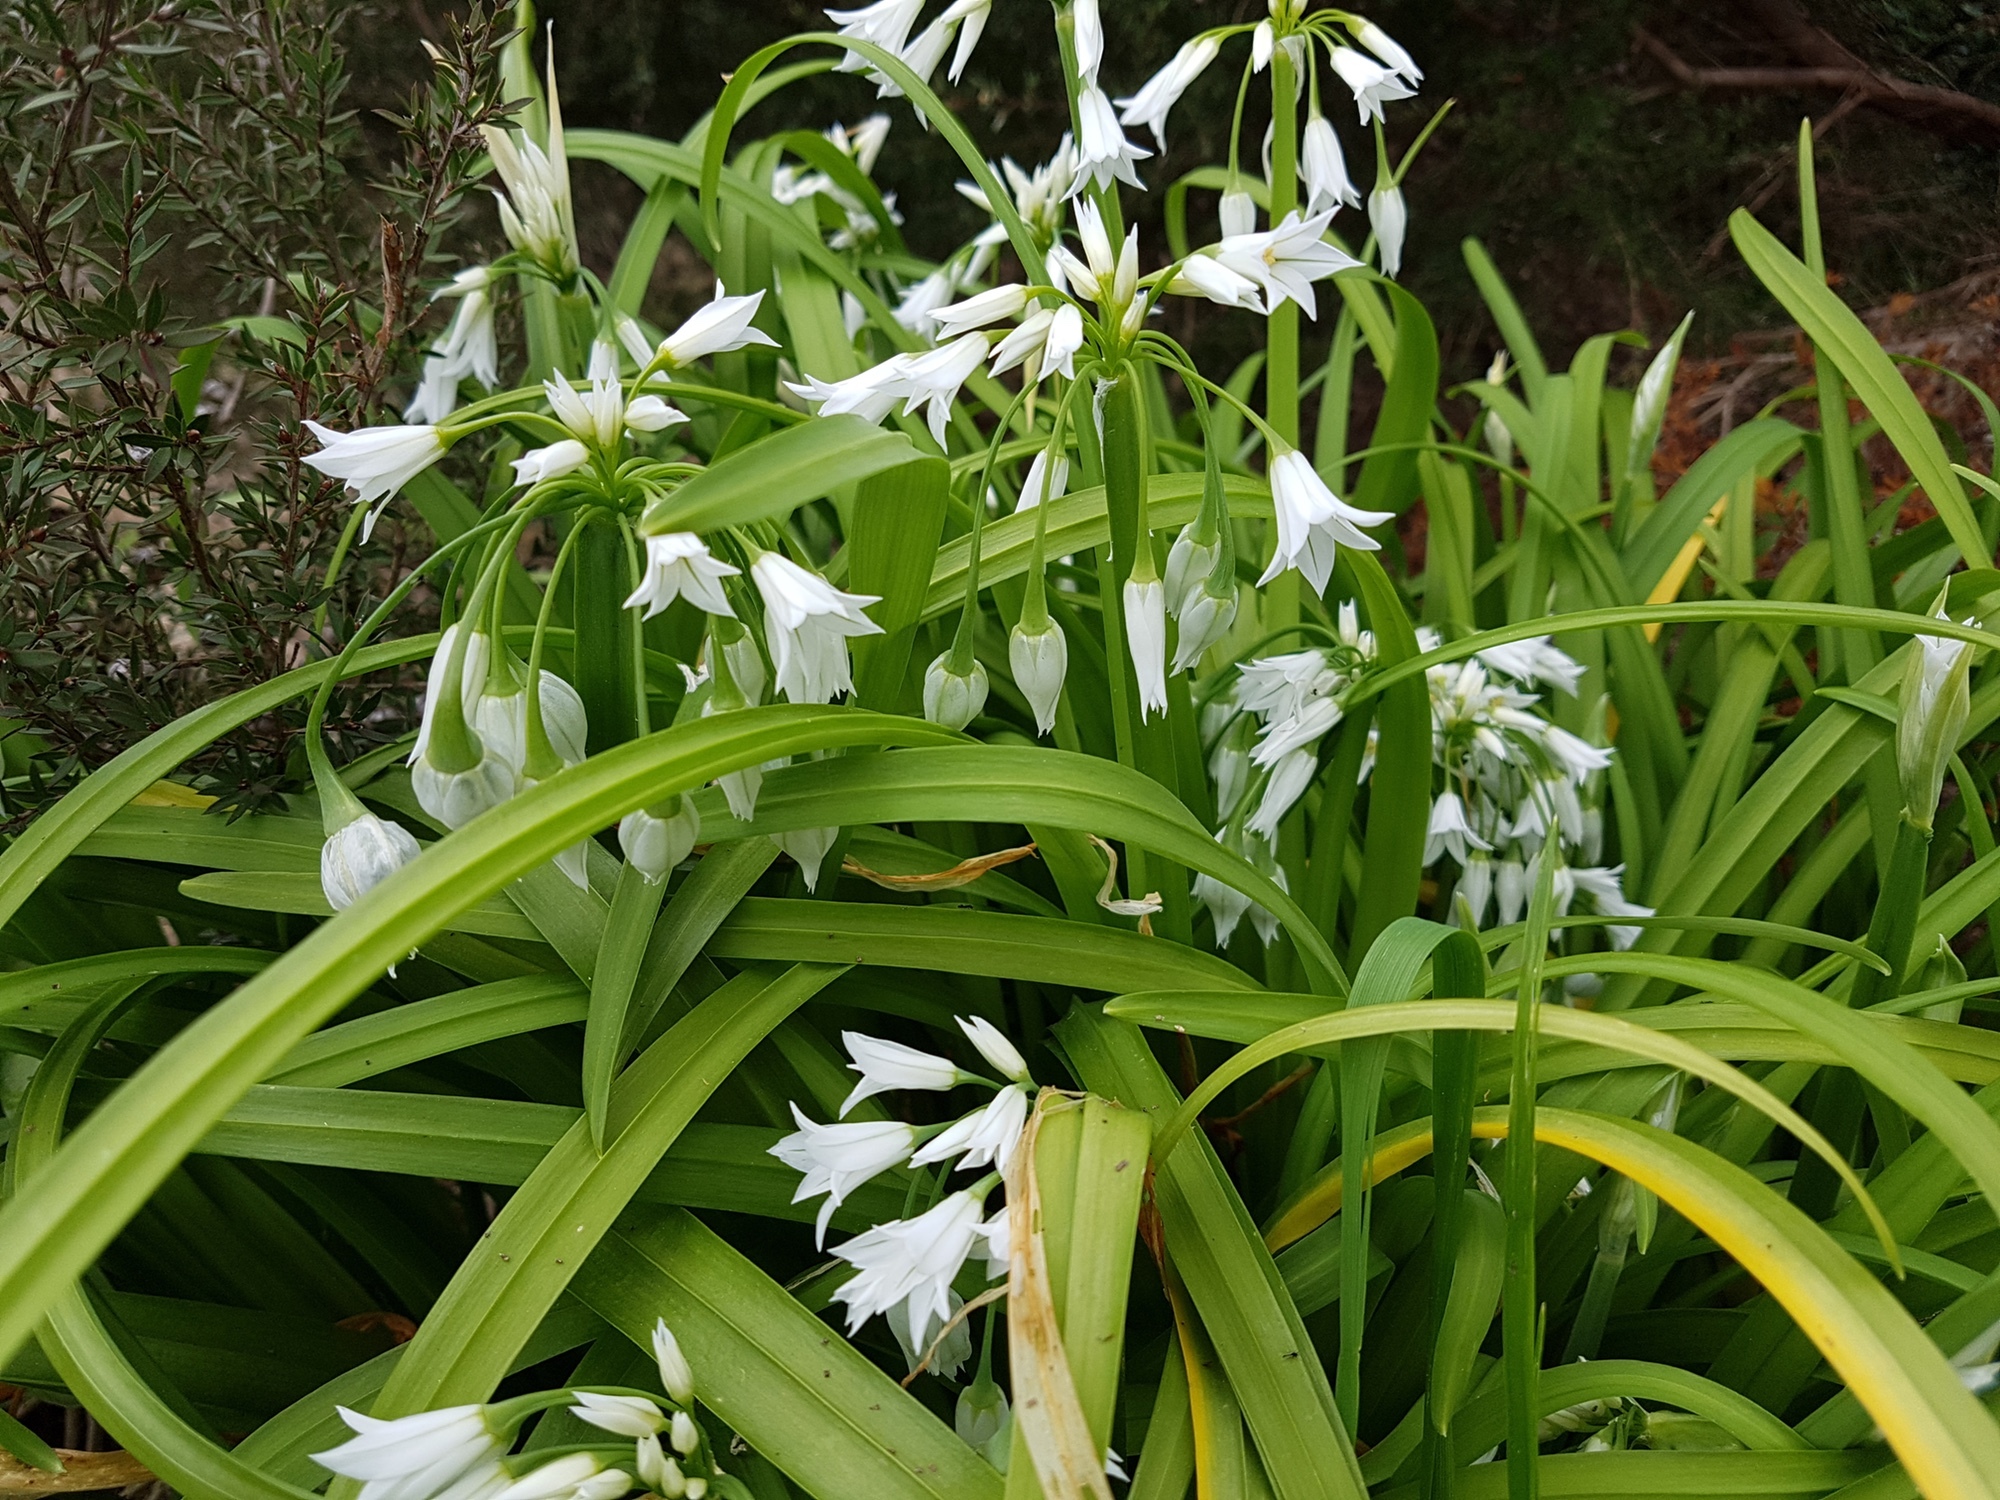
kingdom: Plantae
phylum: Tracheophyta
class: Liliopsida
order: Asparagales
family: Amaryllidaceae
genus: Allium
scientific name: Allium triquetrum
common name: Three-cornered garlic
